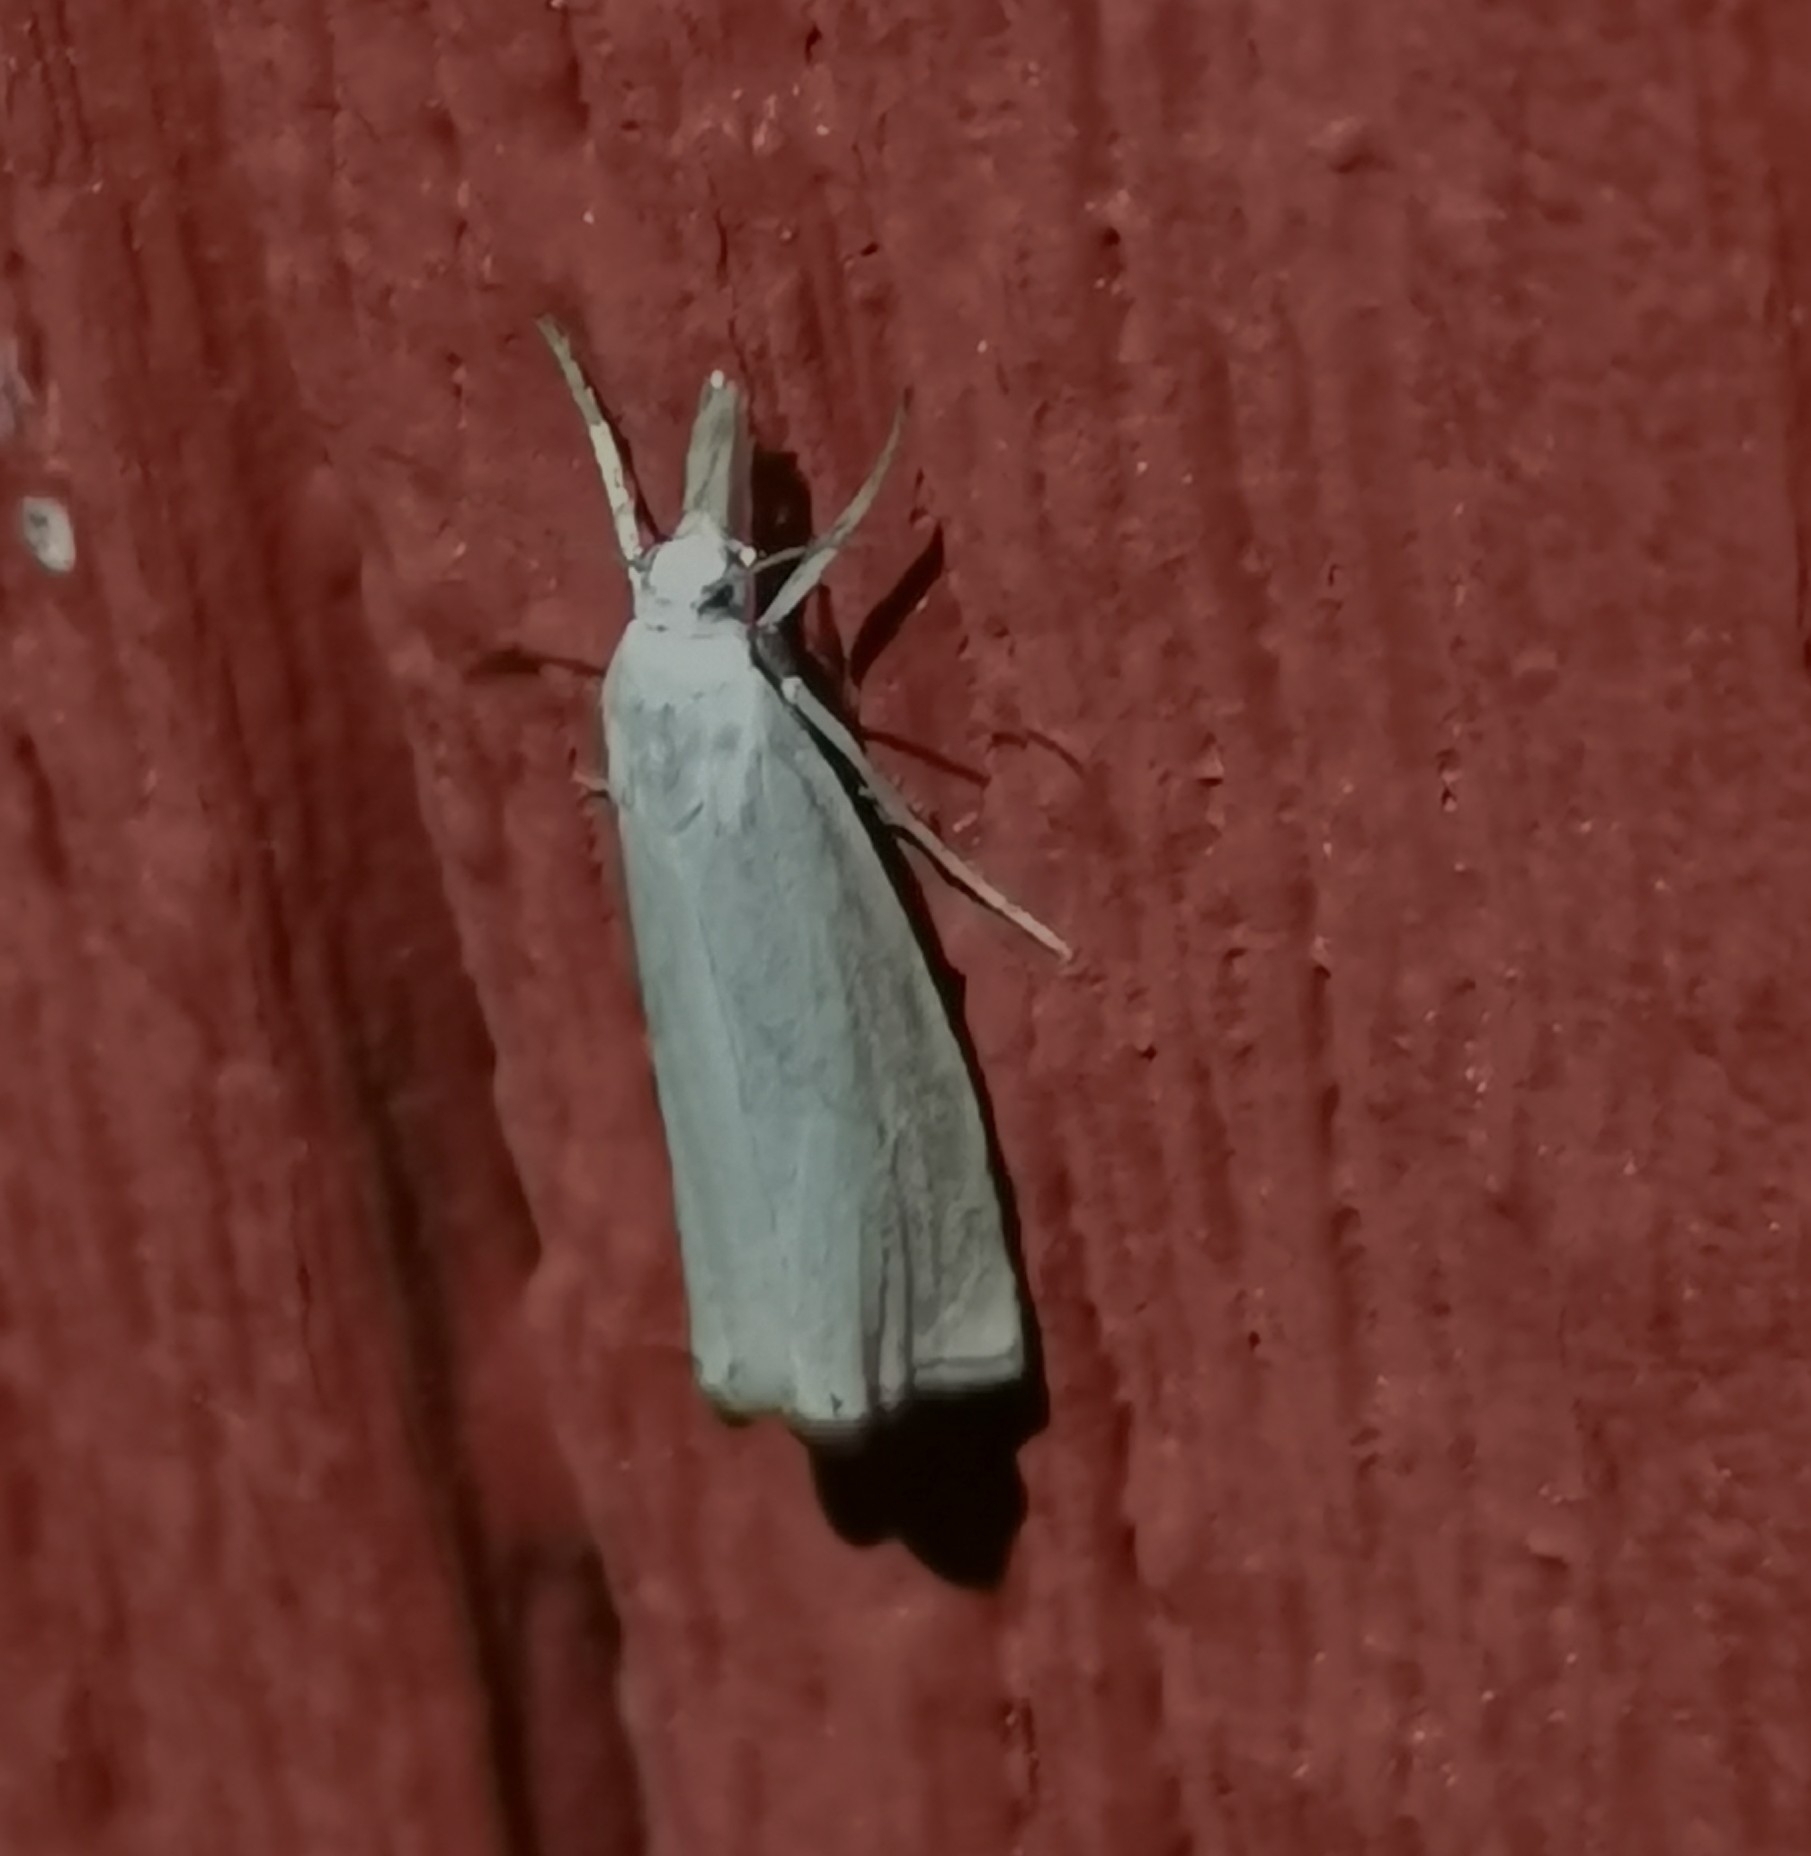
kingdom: Animalia
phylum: Arthropoda
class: Insecta
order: Lepidoptera
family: Crambidae
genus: Chrysoteuchia
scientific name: Chrysoteuchia culmella
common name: Garden grass-veneer
